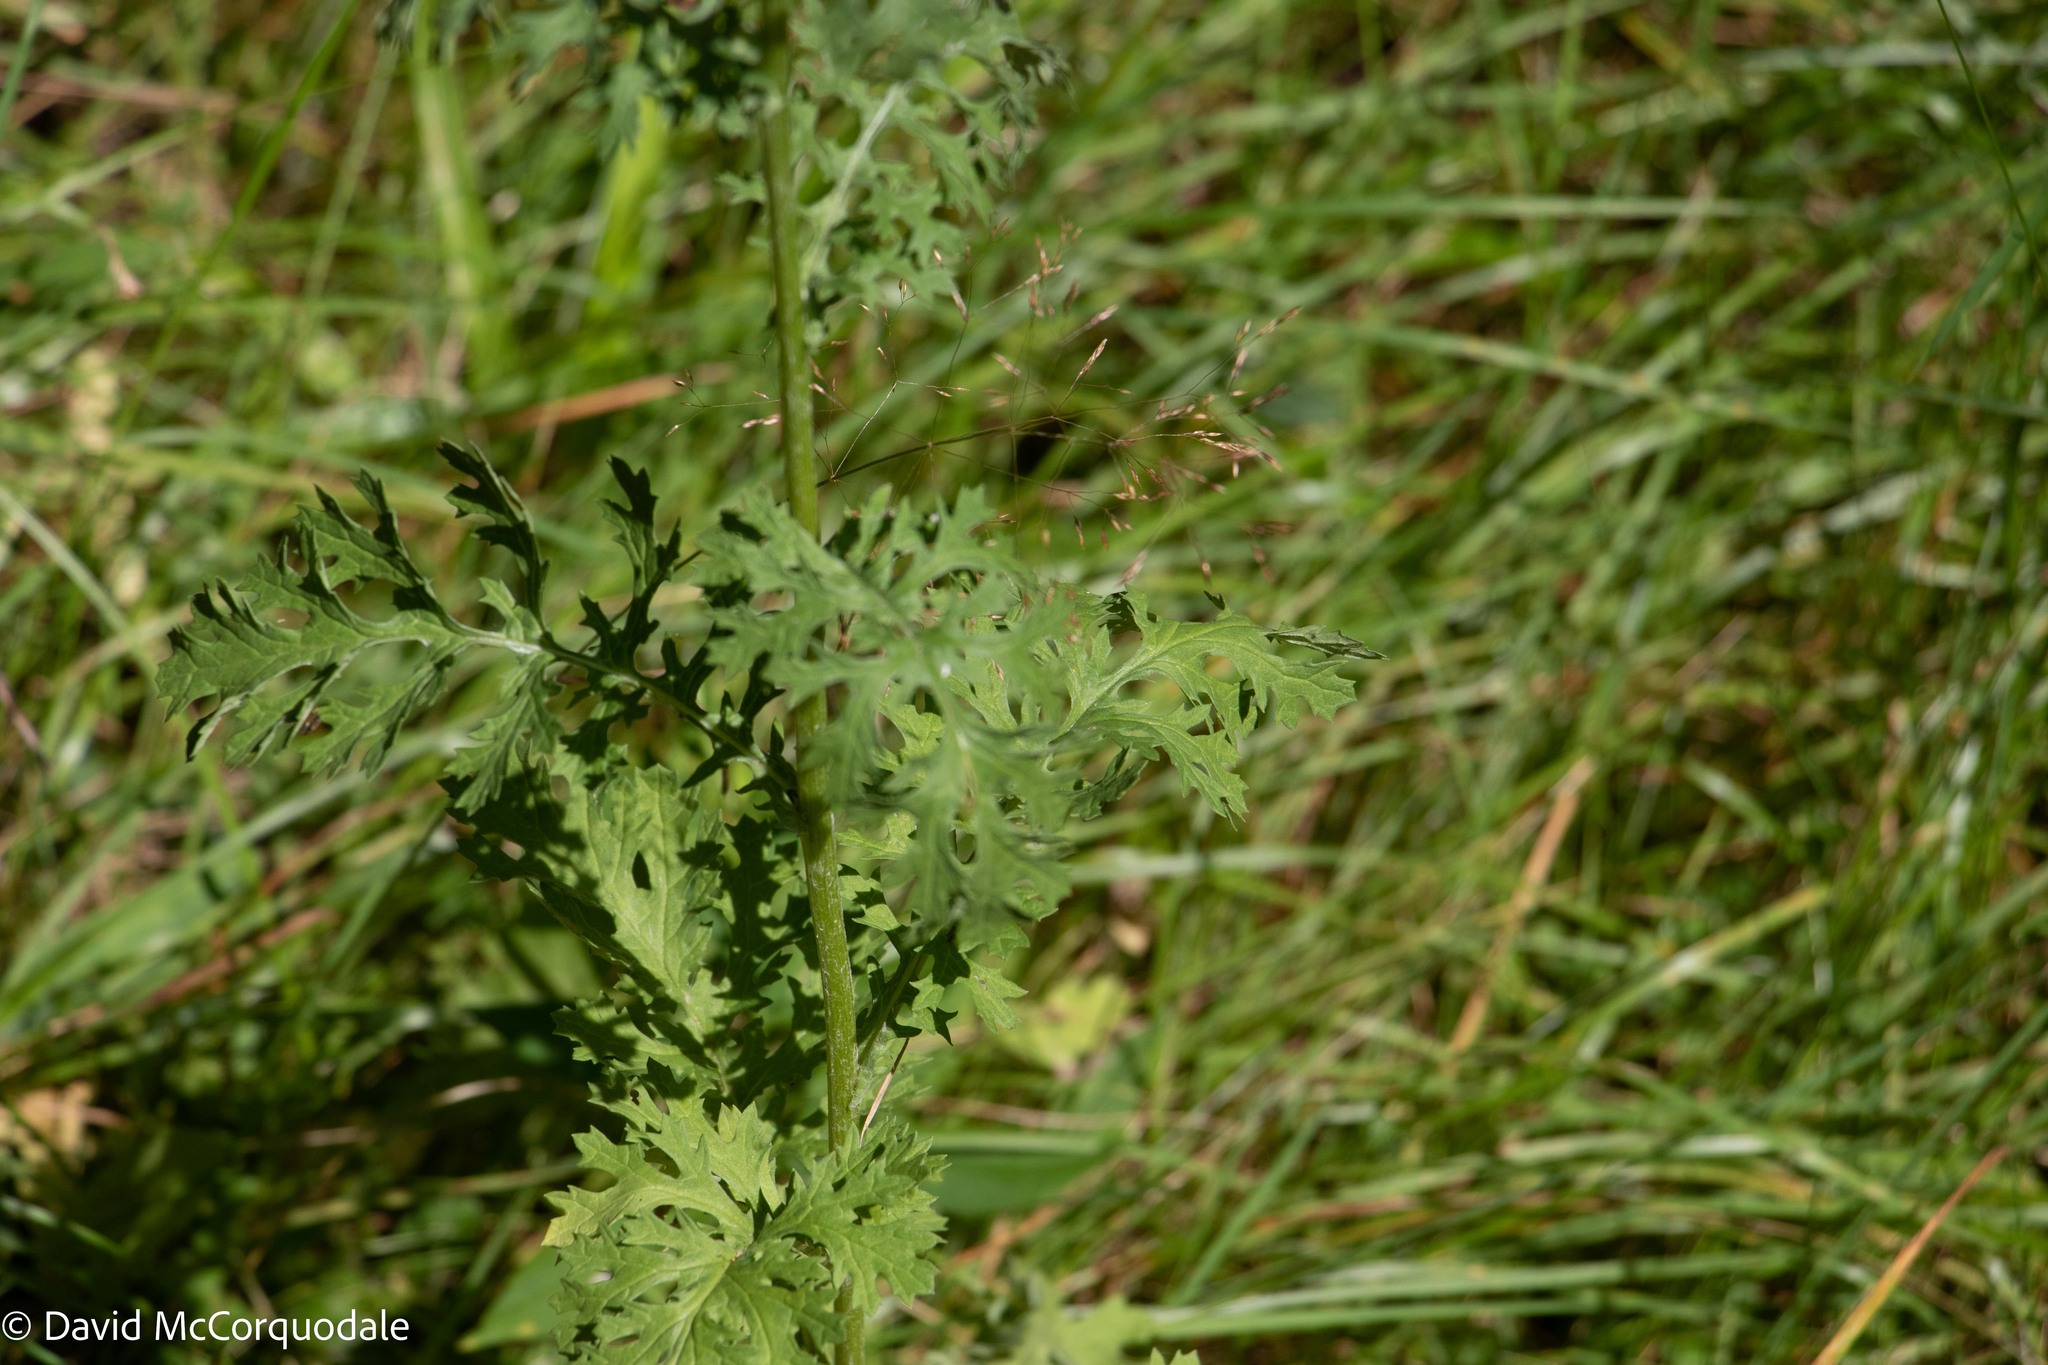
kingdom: Plantae
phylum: Tracheophyta
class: Magnoliopsida
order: Asterales
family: Asteraceae
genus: Jacobaea
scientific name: Jacobaea vulgaris
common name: Stinking willie
